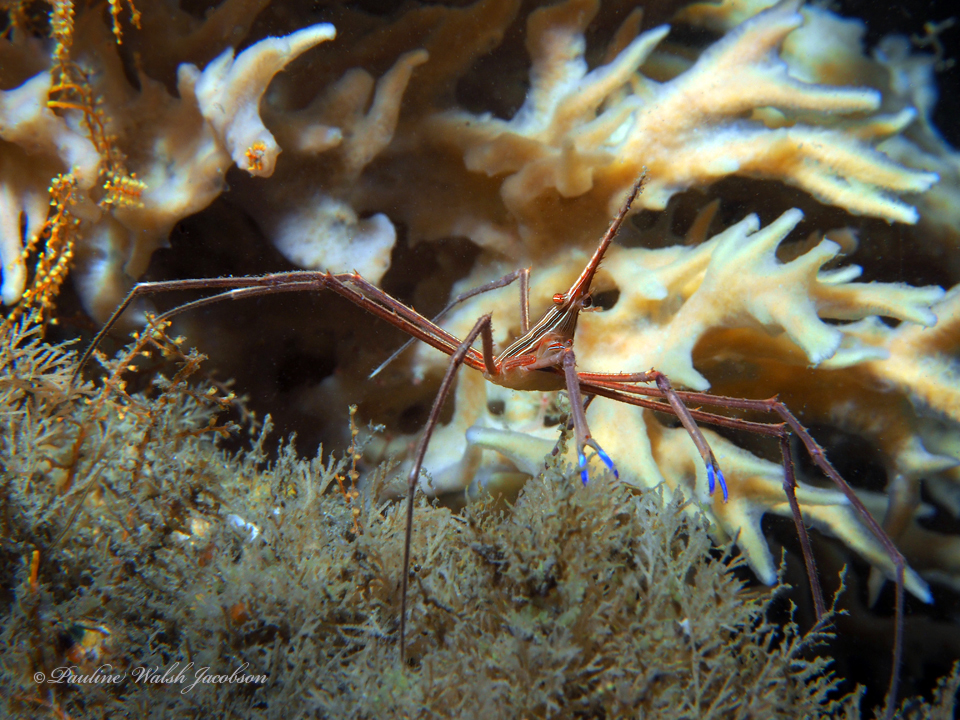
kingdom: Animalia
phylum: Arthropoda
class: Malacostraca
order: Decapoda
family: Inachoididae
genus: Stenorhynchus
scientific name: Stenorhynchus seticornis
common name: Arrow crab
